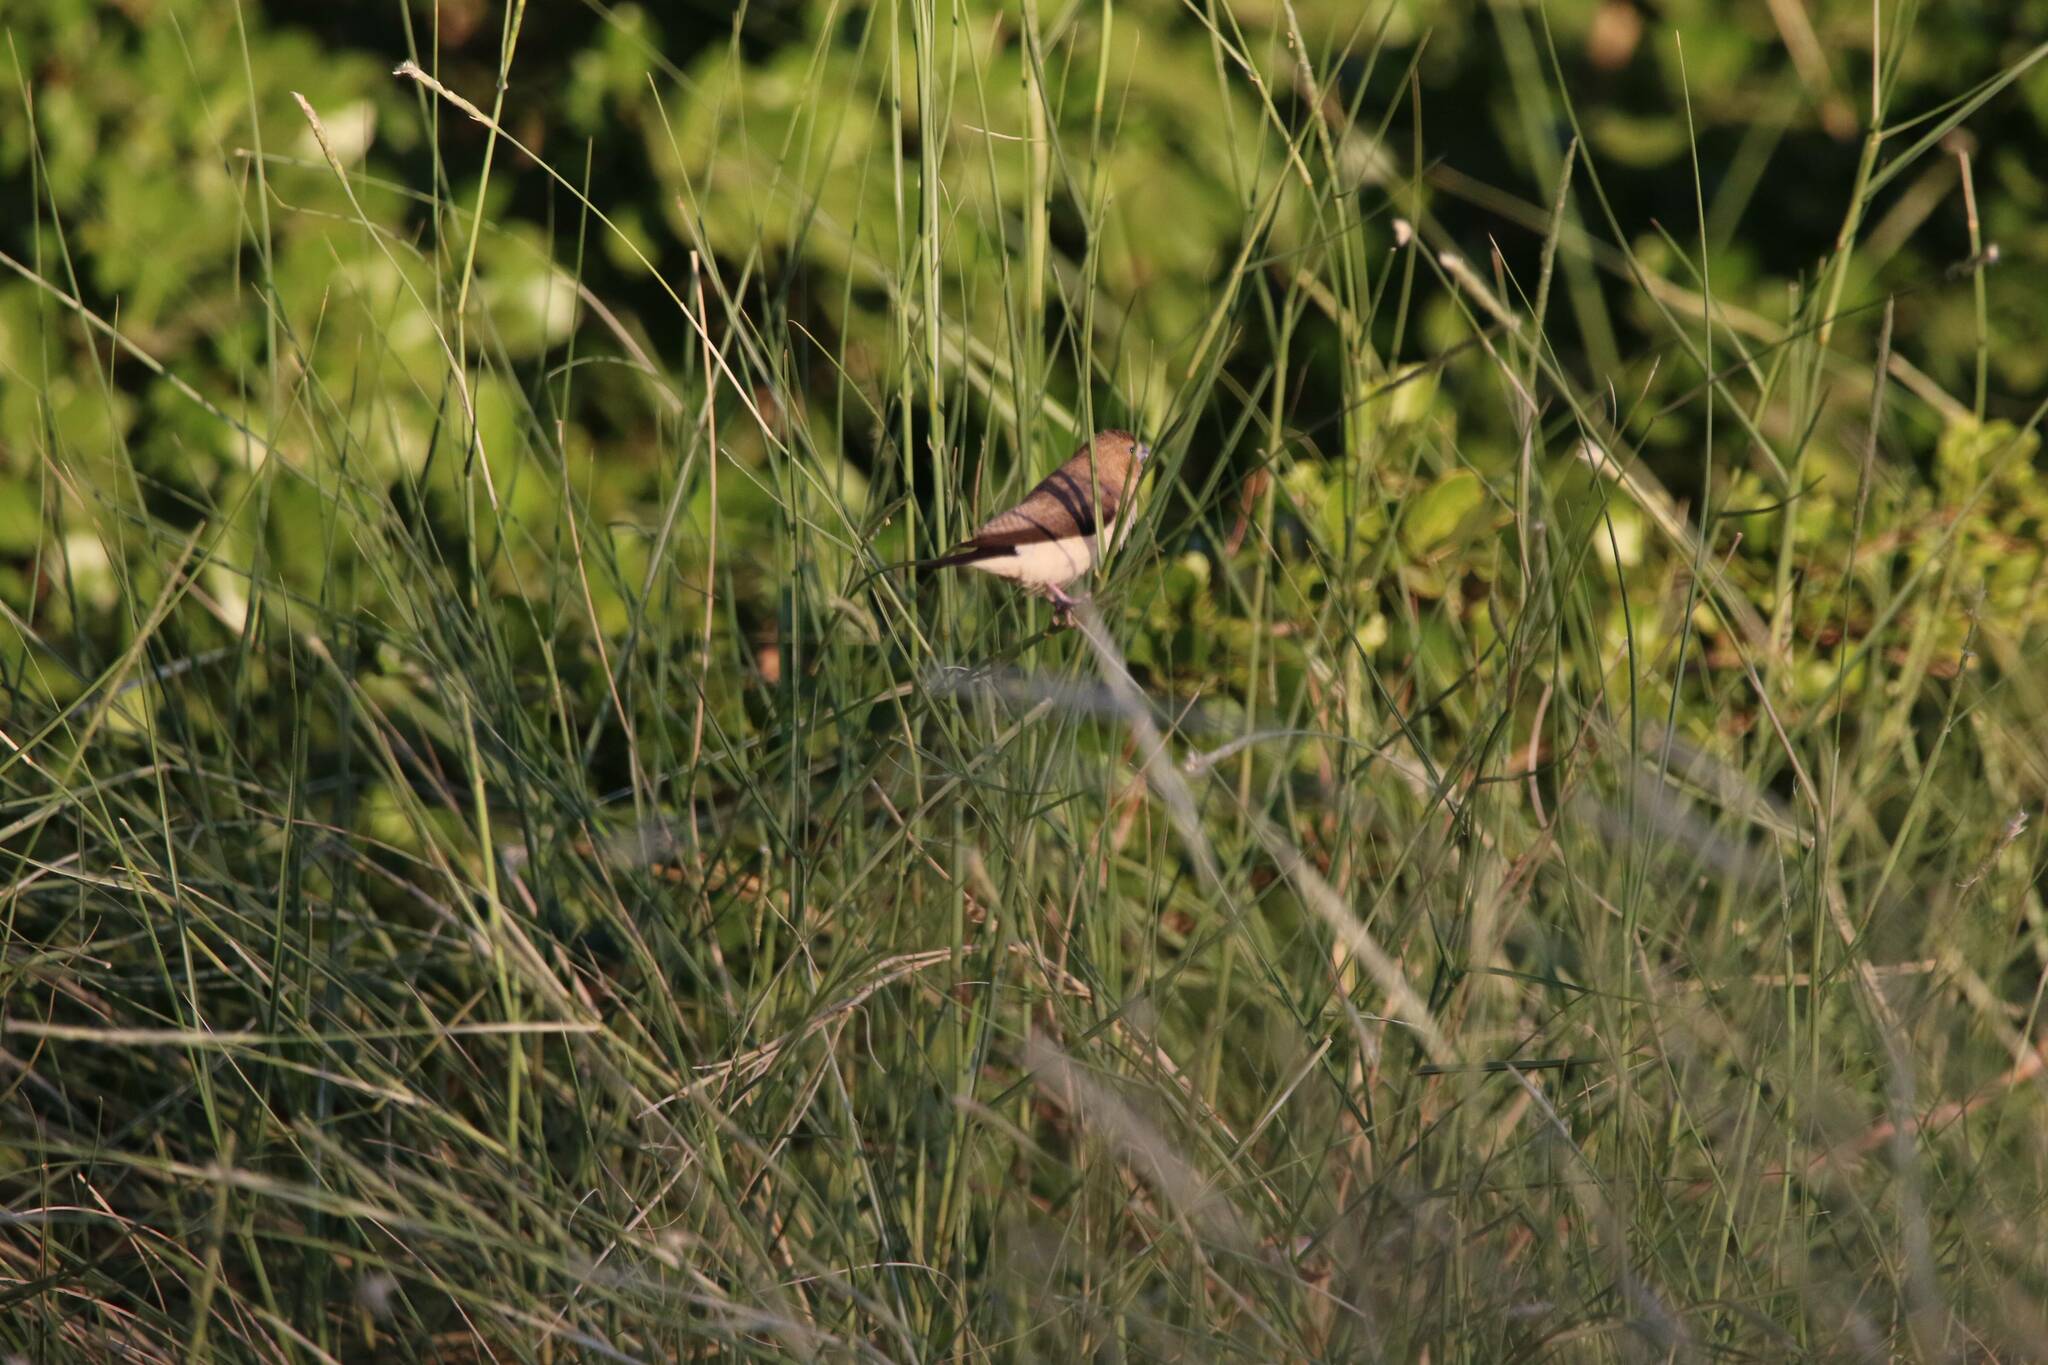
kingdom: Animalia
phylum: Chordata
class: Aves
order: Passeriformes
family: Estrildidae
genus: Euodice
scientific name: Euodice cantans
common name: African silverbill
